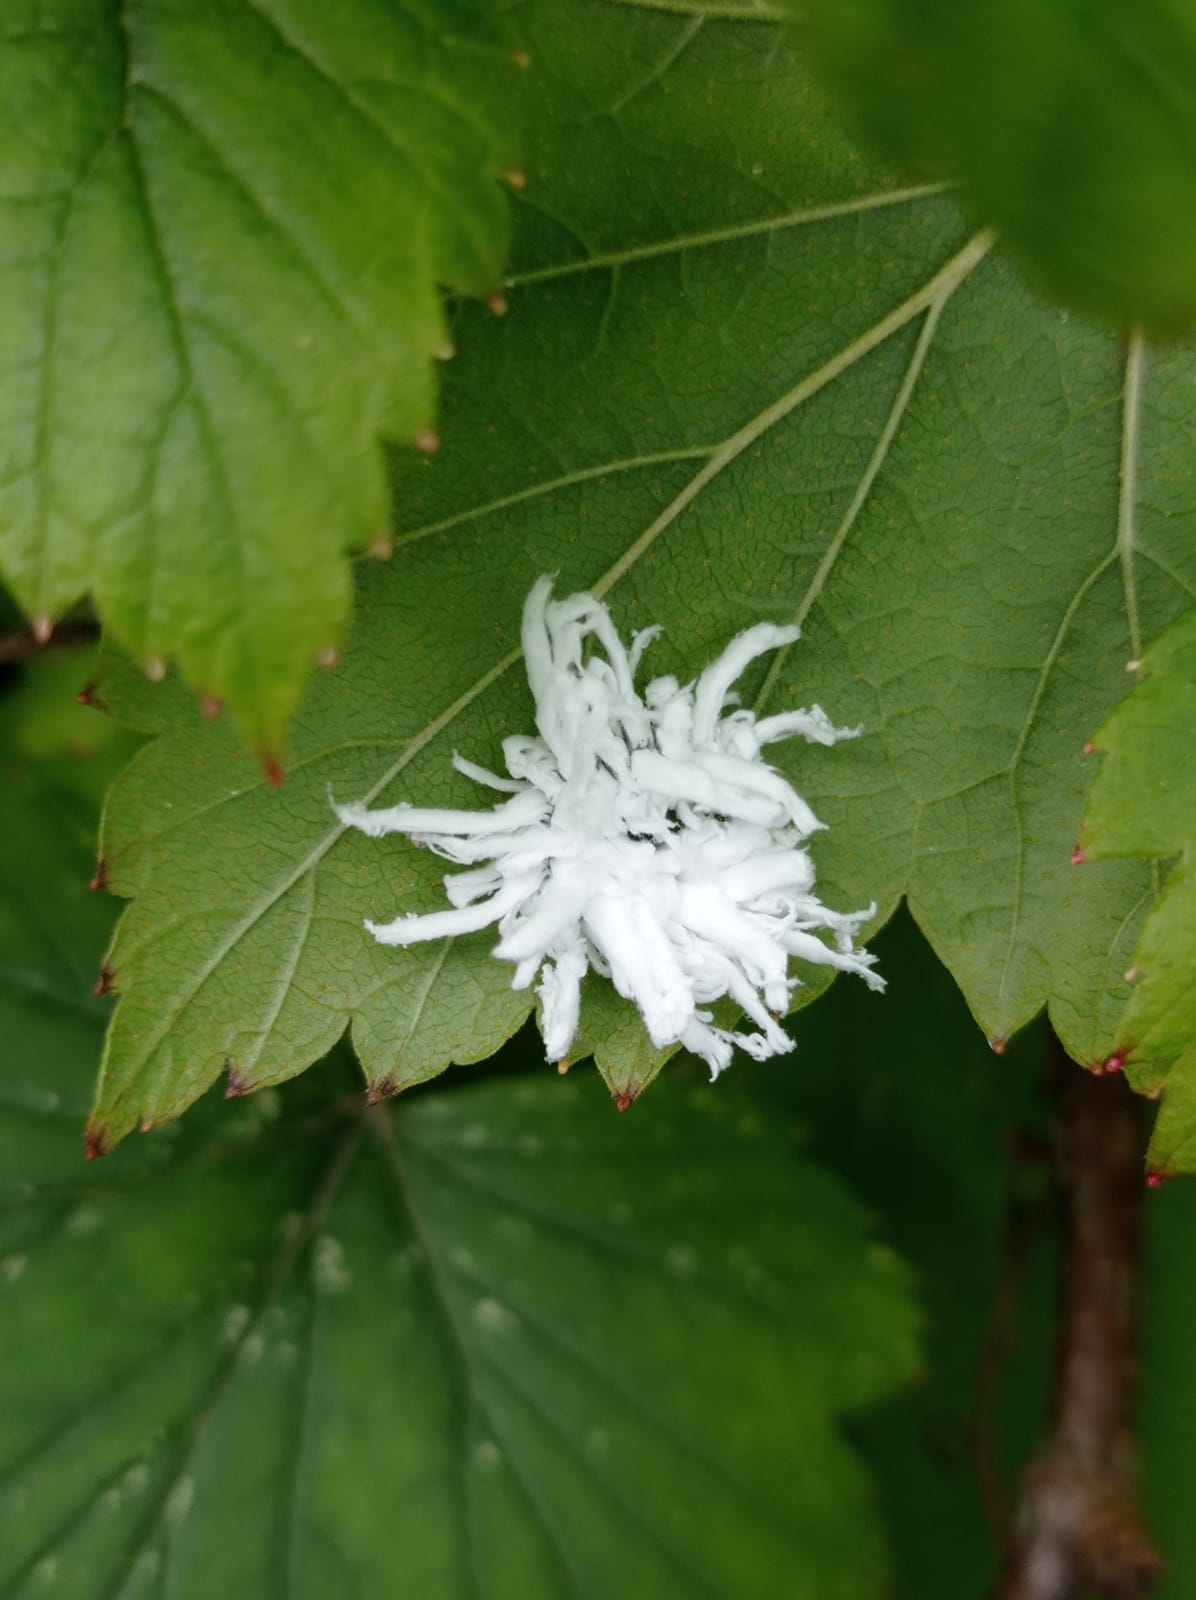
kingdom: Animalia
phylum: Arthropoda
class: Insecta
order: Hemiptera
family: Psyllidae
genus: Psylla
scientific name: Psylla alni
